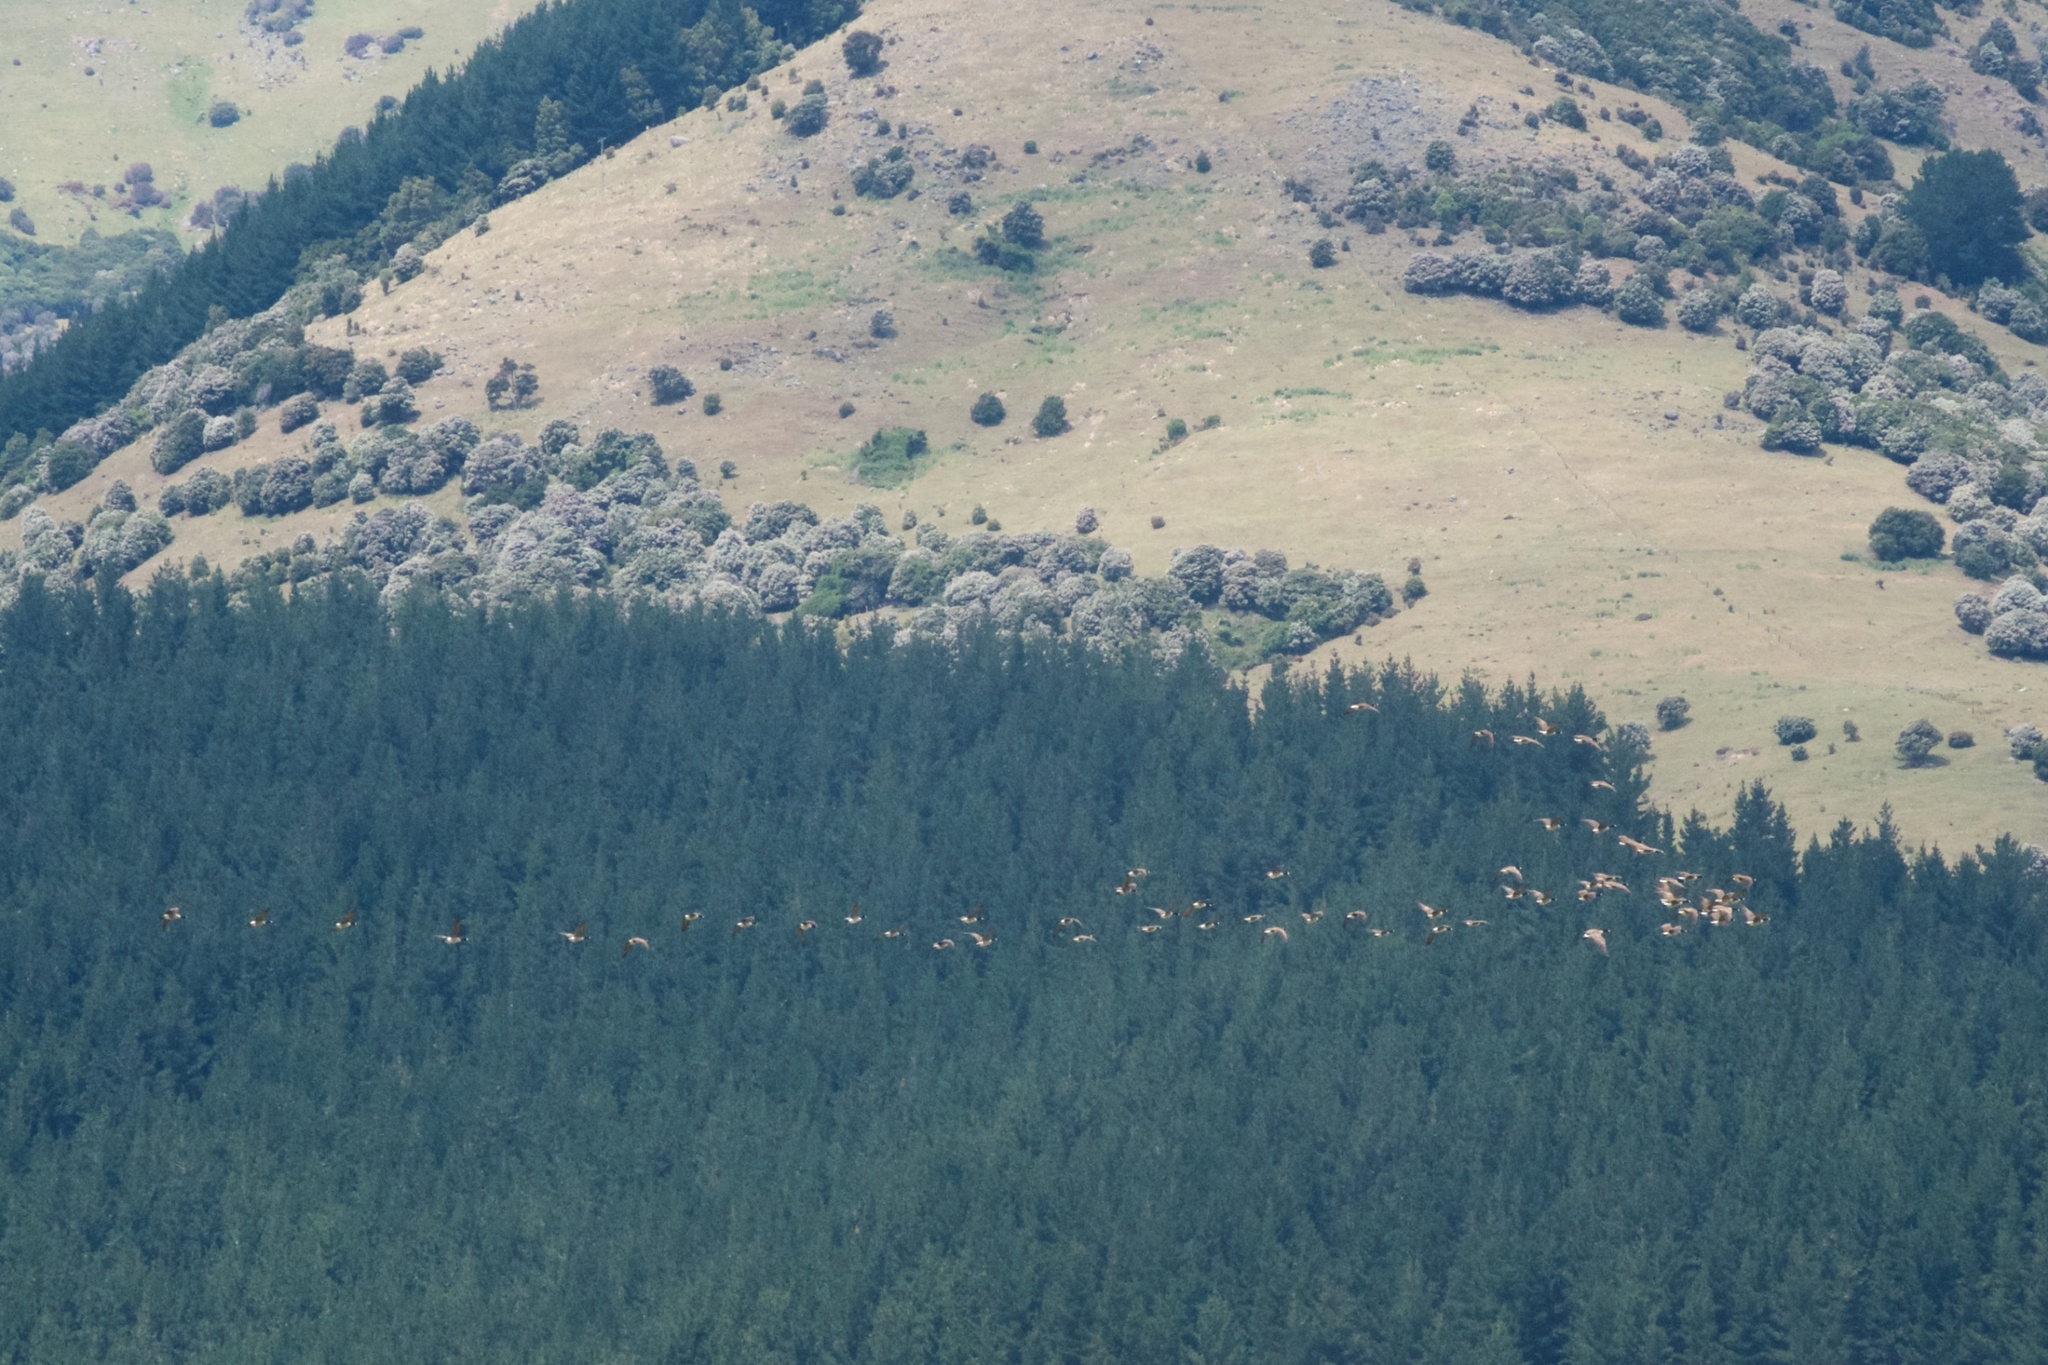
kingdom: Animalia
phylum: Chordata
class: Aves
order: Anseriformes
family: Anatidae
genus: Branta
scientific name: Branta canadensis
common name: Canada goose
